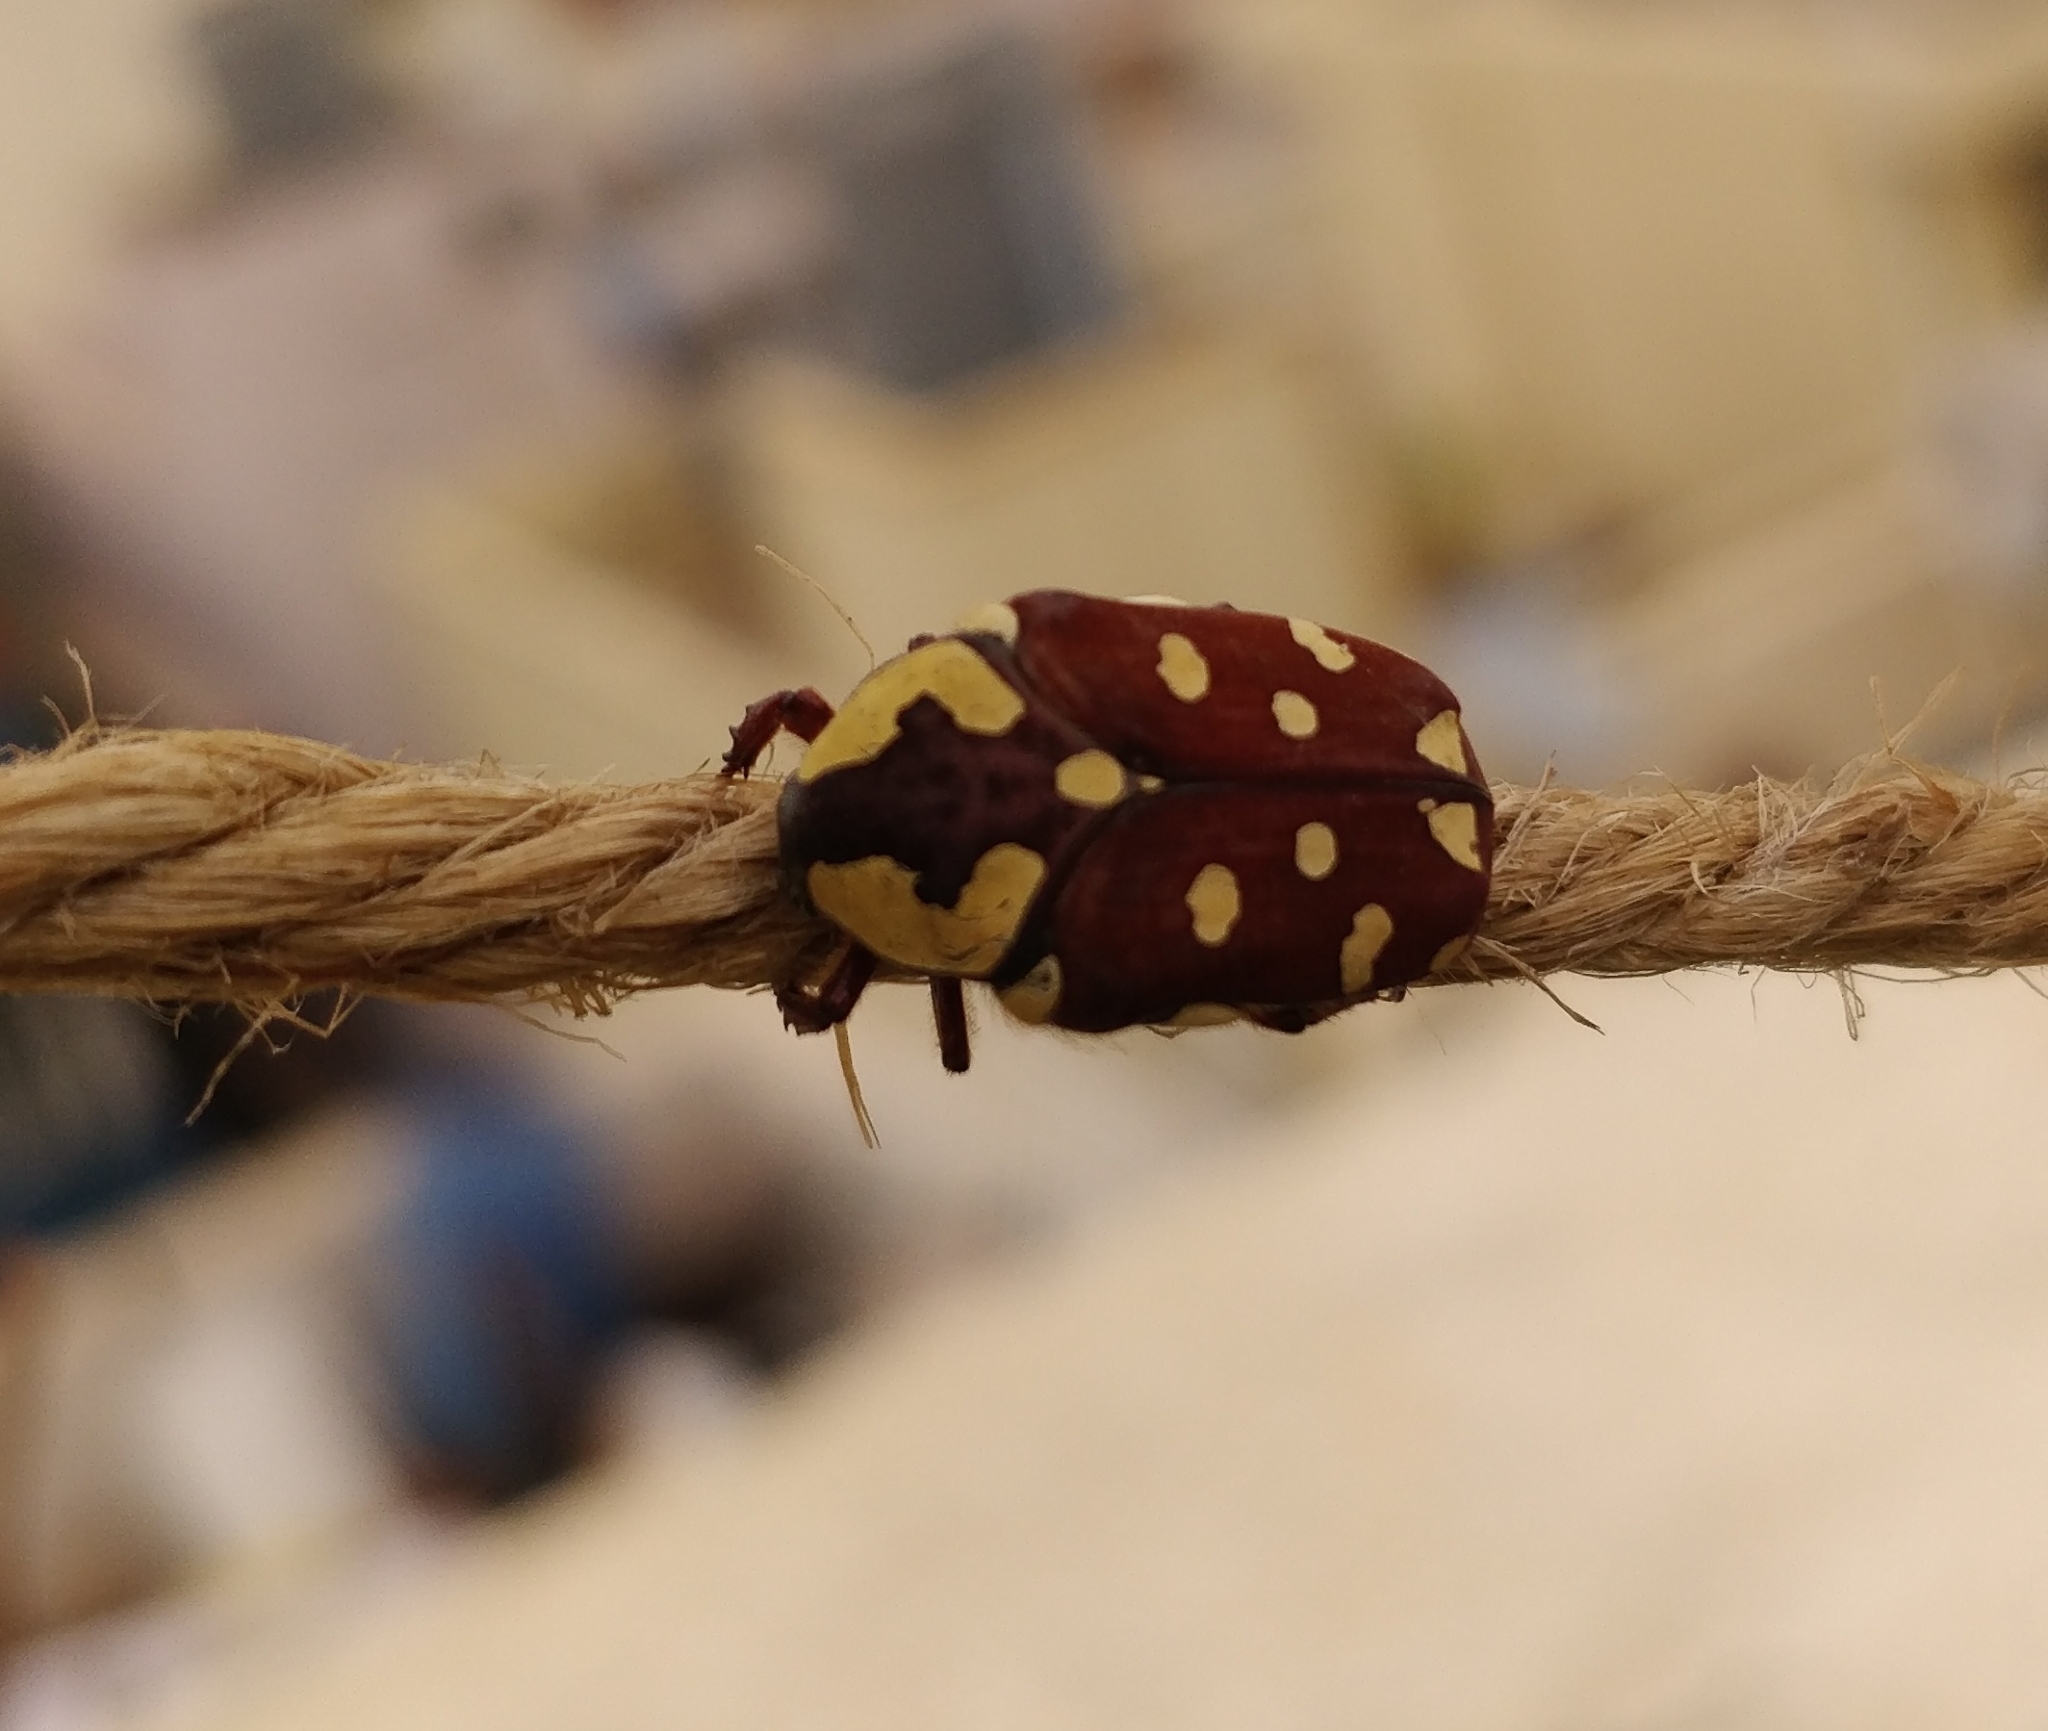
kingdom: Animalia
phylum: Arthropoda
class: Insecta
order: Coleoptera
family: Scarabaeidae
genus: Clinteria
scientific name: Clinteria klugi
